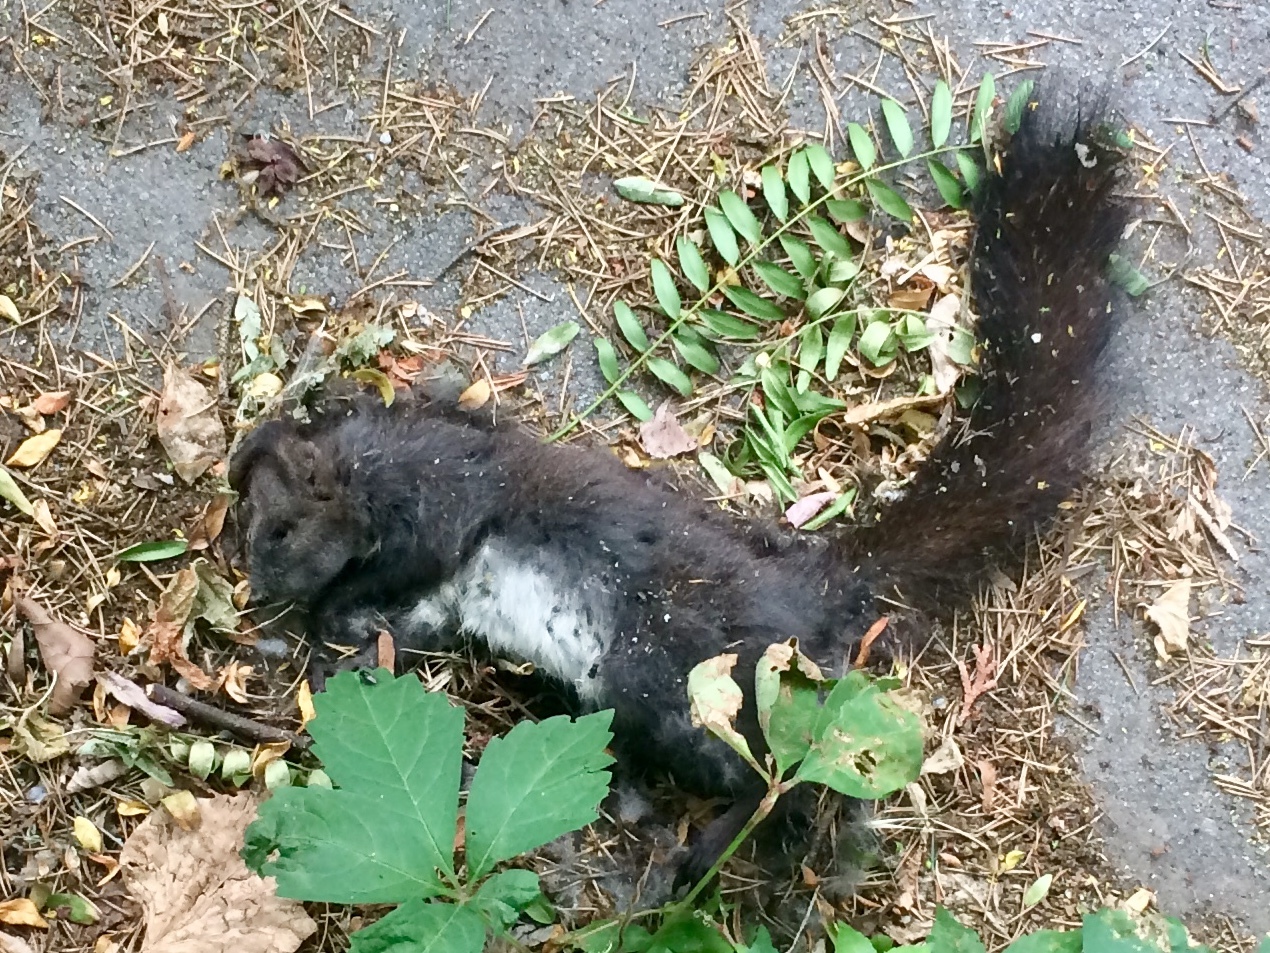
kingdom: Animalia
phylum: Chordata
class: Mammalia
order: Rodentia
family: Sciuridae
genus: Sciurus
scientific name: Sciurus vulgaris
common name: Eurasian red squirrel
